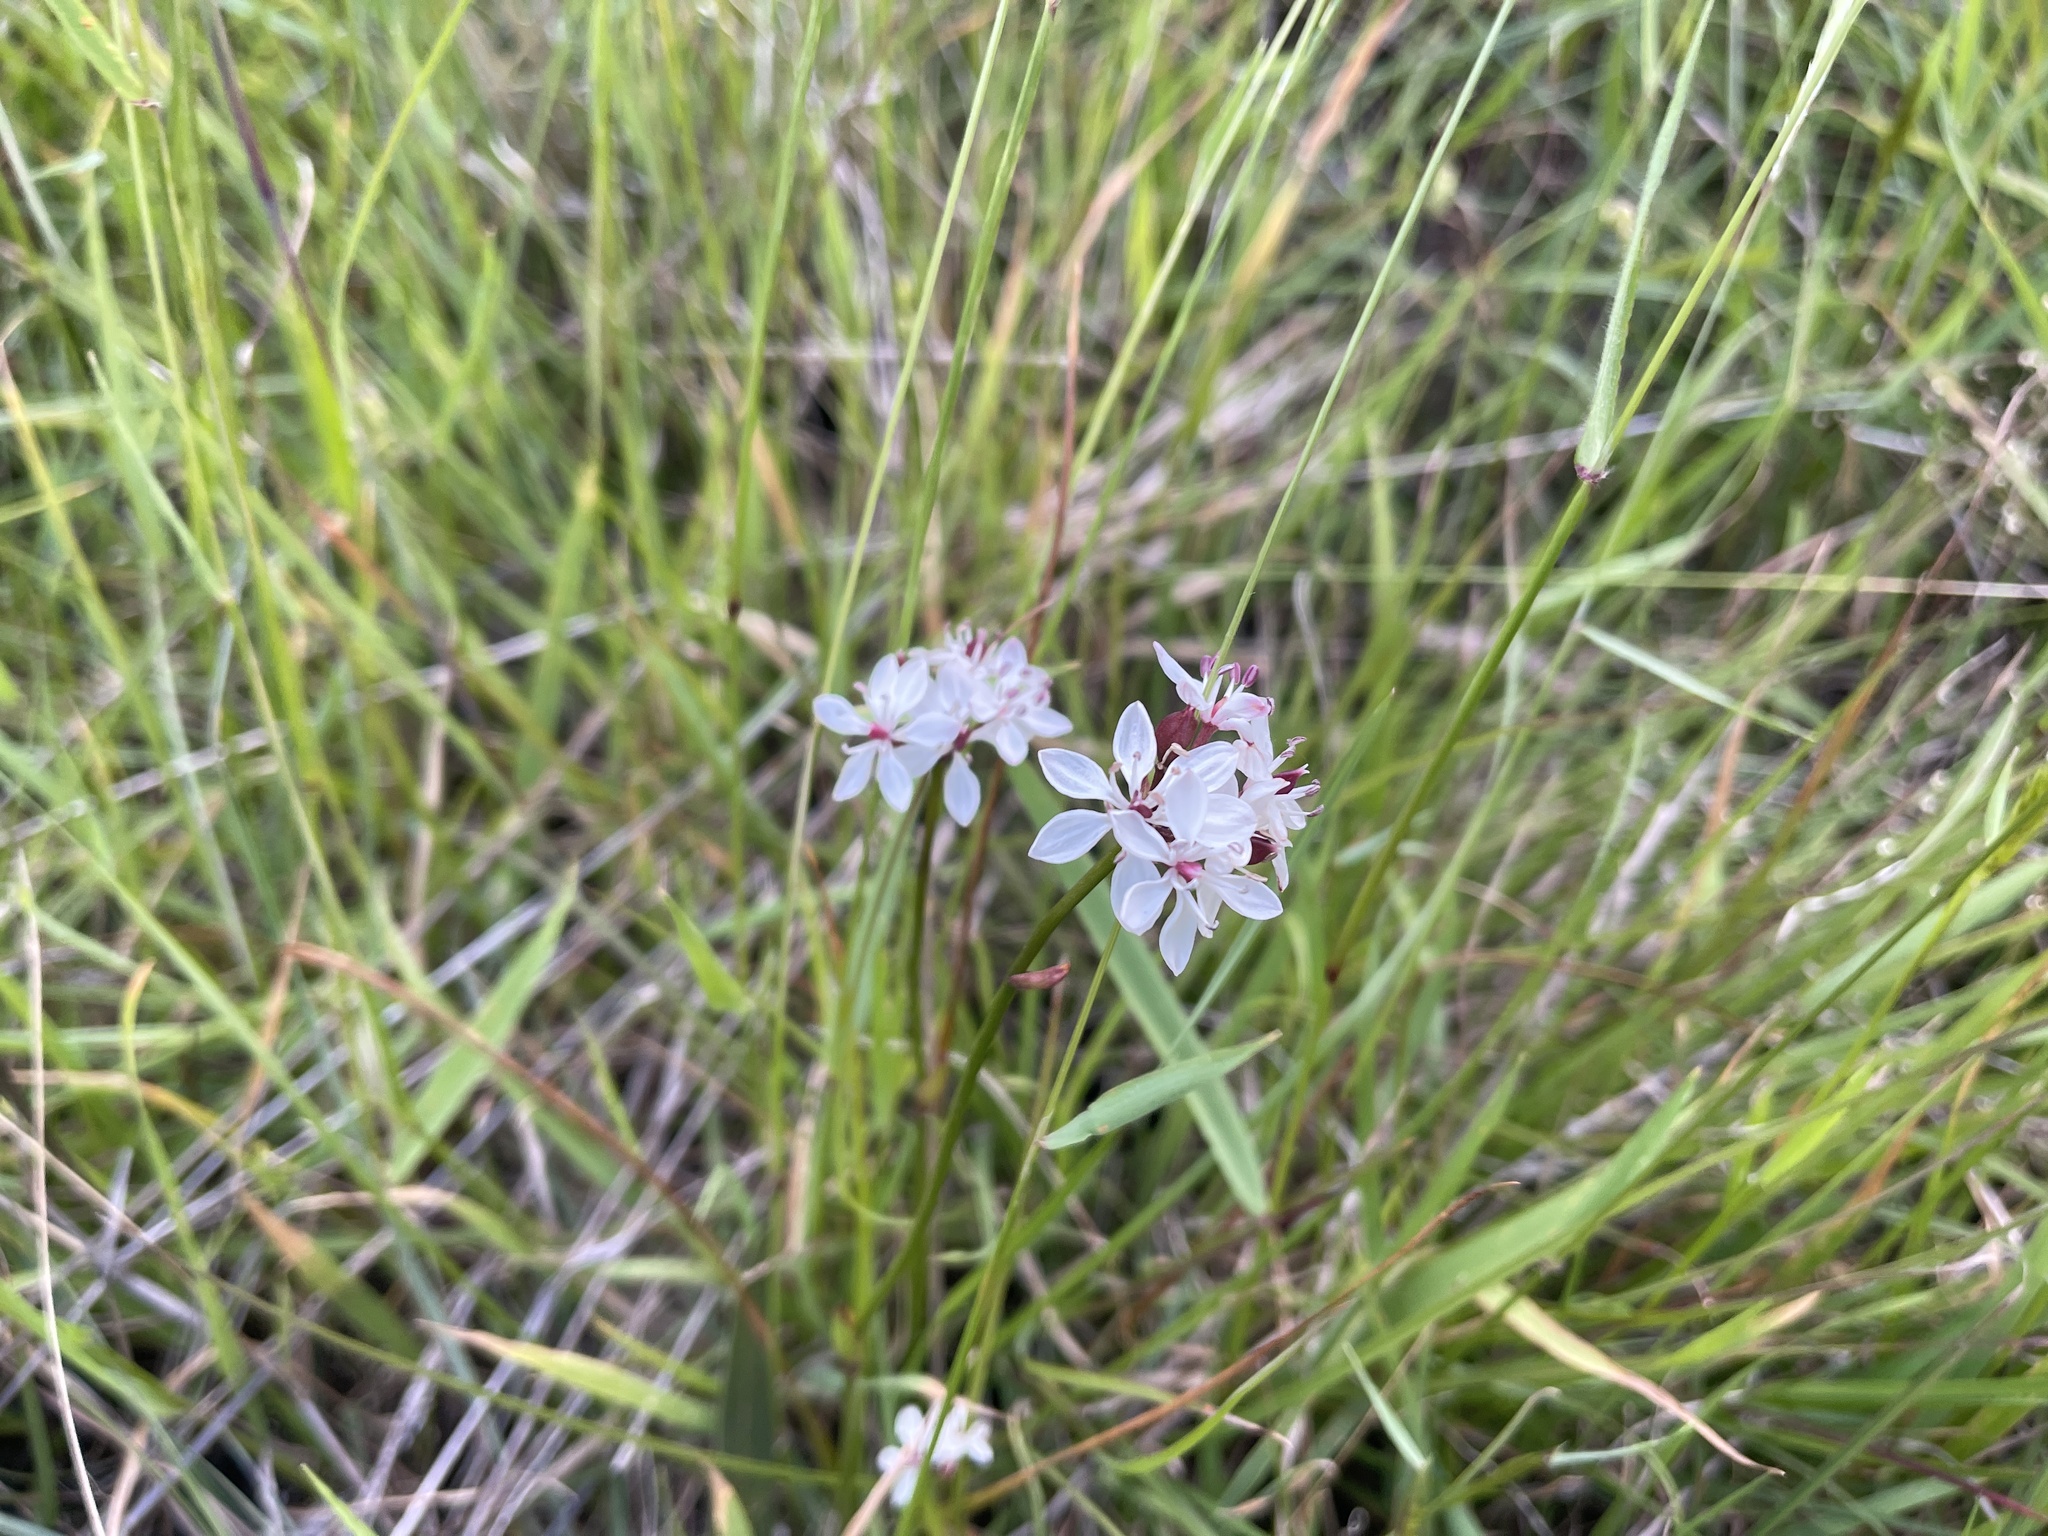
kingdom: Plantae
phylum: Tracheophyta
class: Liliopsida
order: Liliales
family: Colchicaceae
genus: Burchardia
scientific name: Burchardia umbellata
